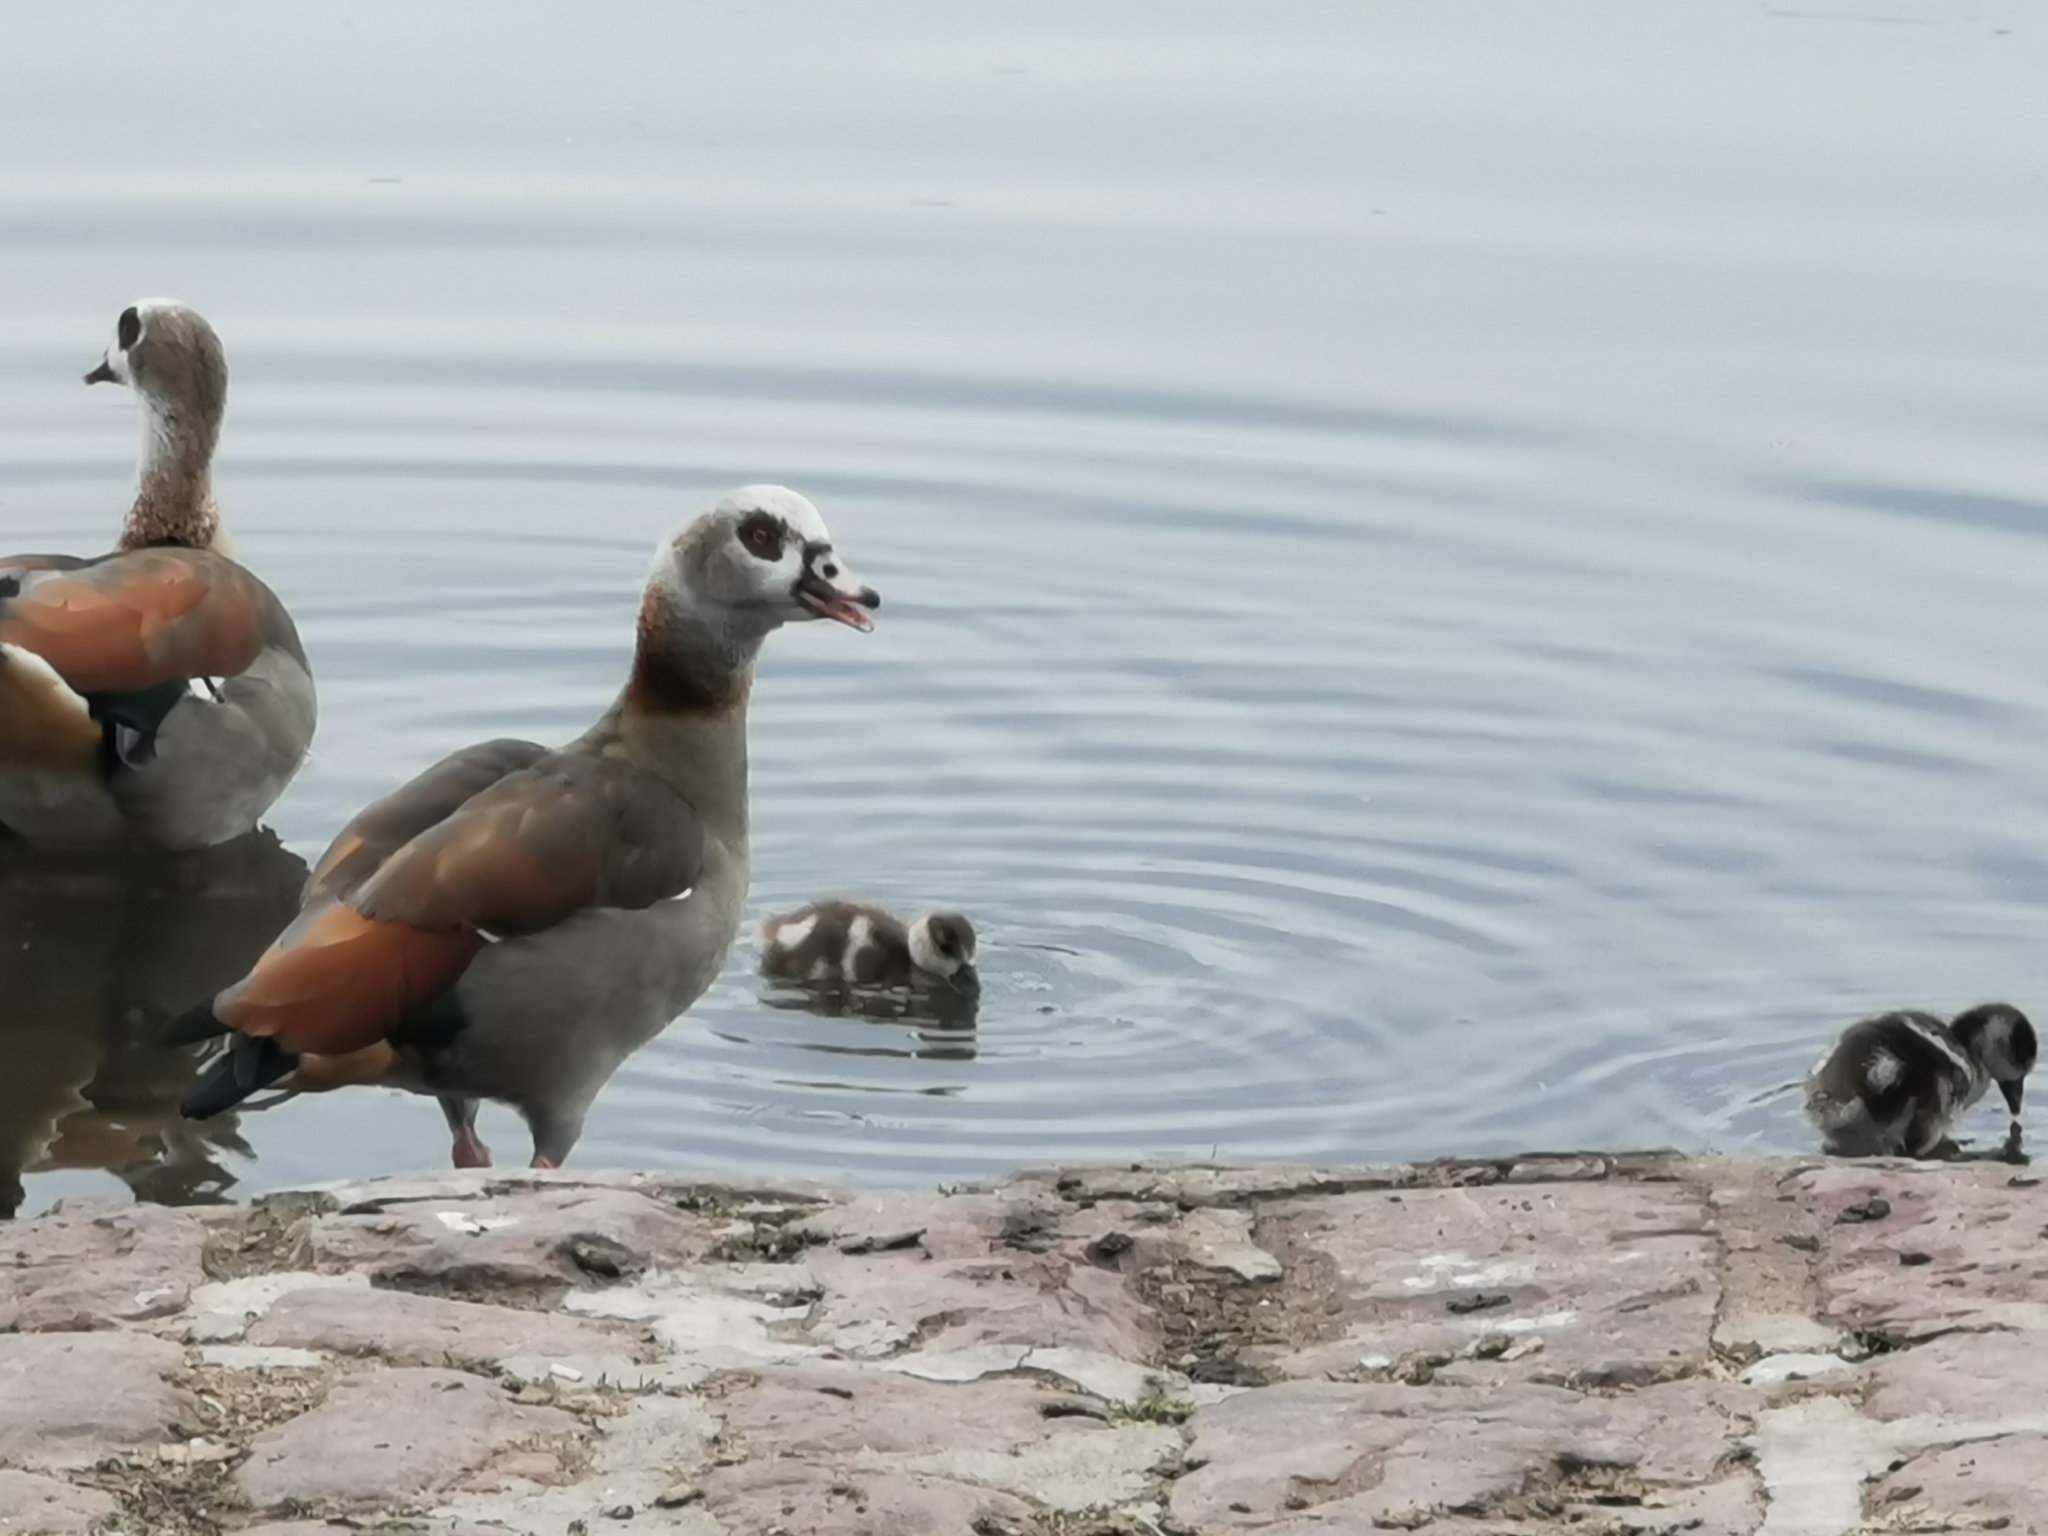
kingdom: Animalia
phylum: Chordata
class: Aves
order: Anseriformes
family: Anatidae
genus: Alopochen
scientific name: Alopochen aegyptiaca
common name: Egyptian goose
